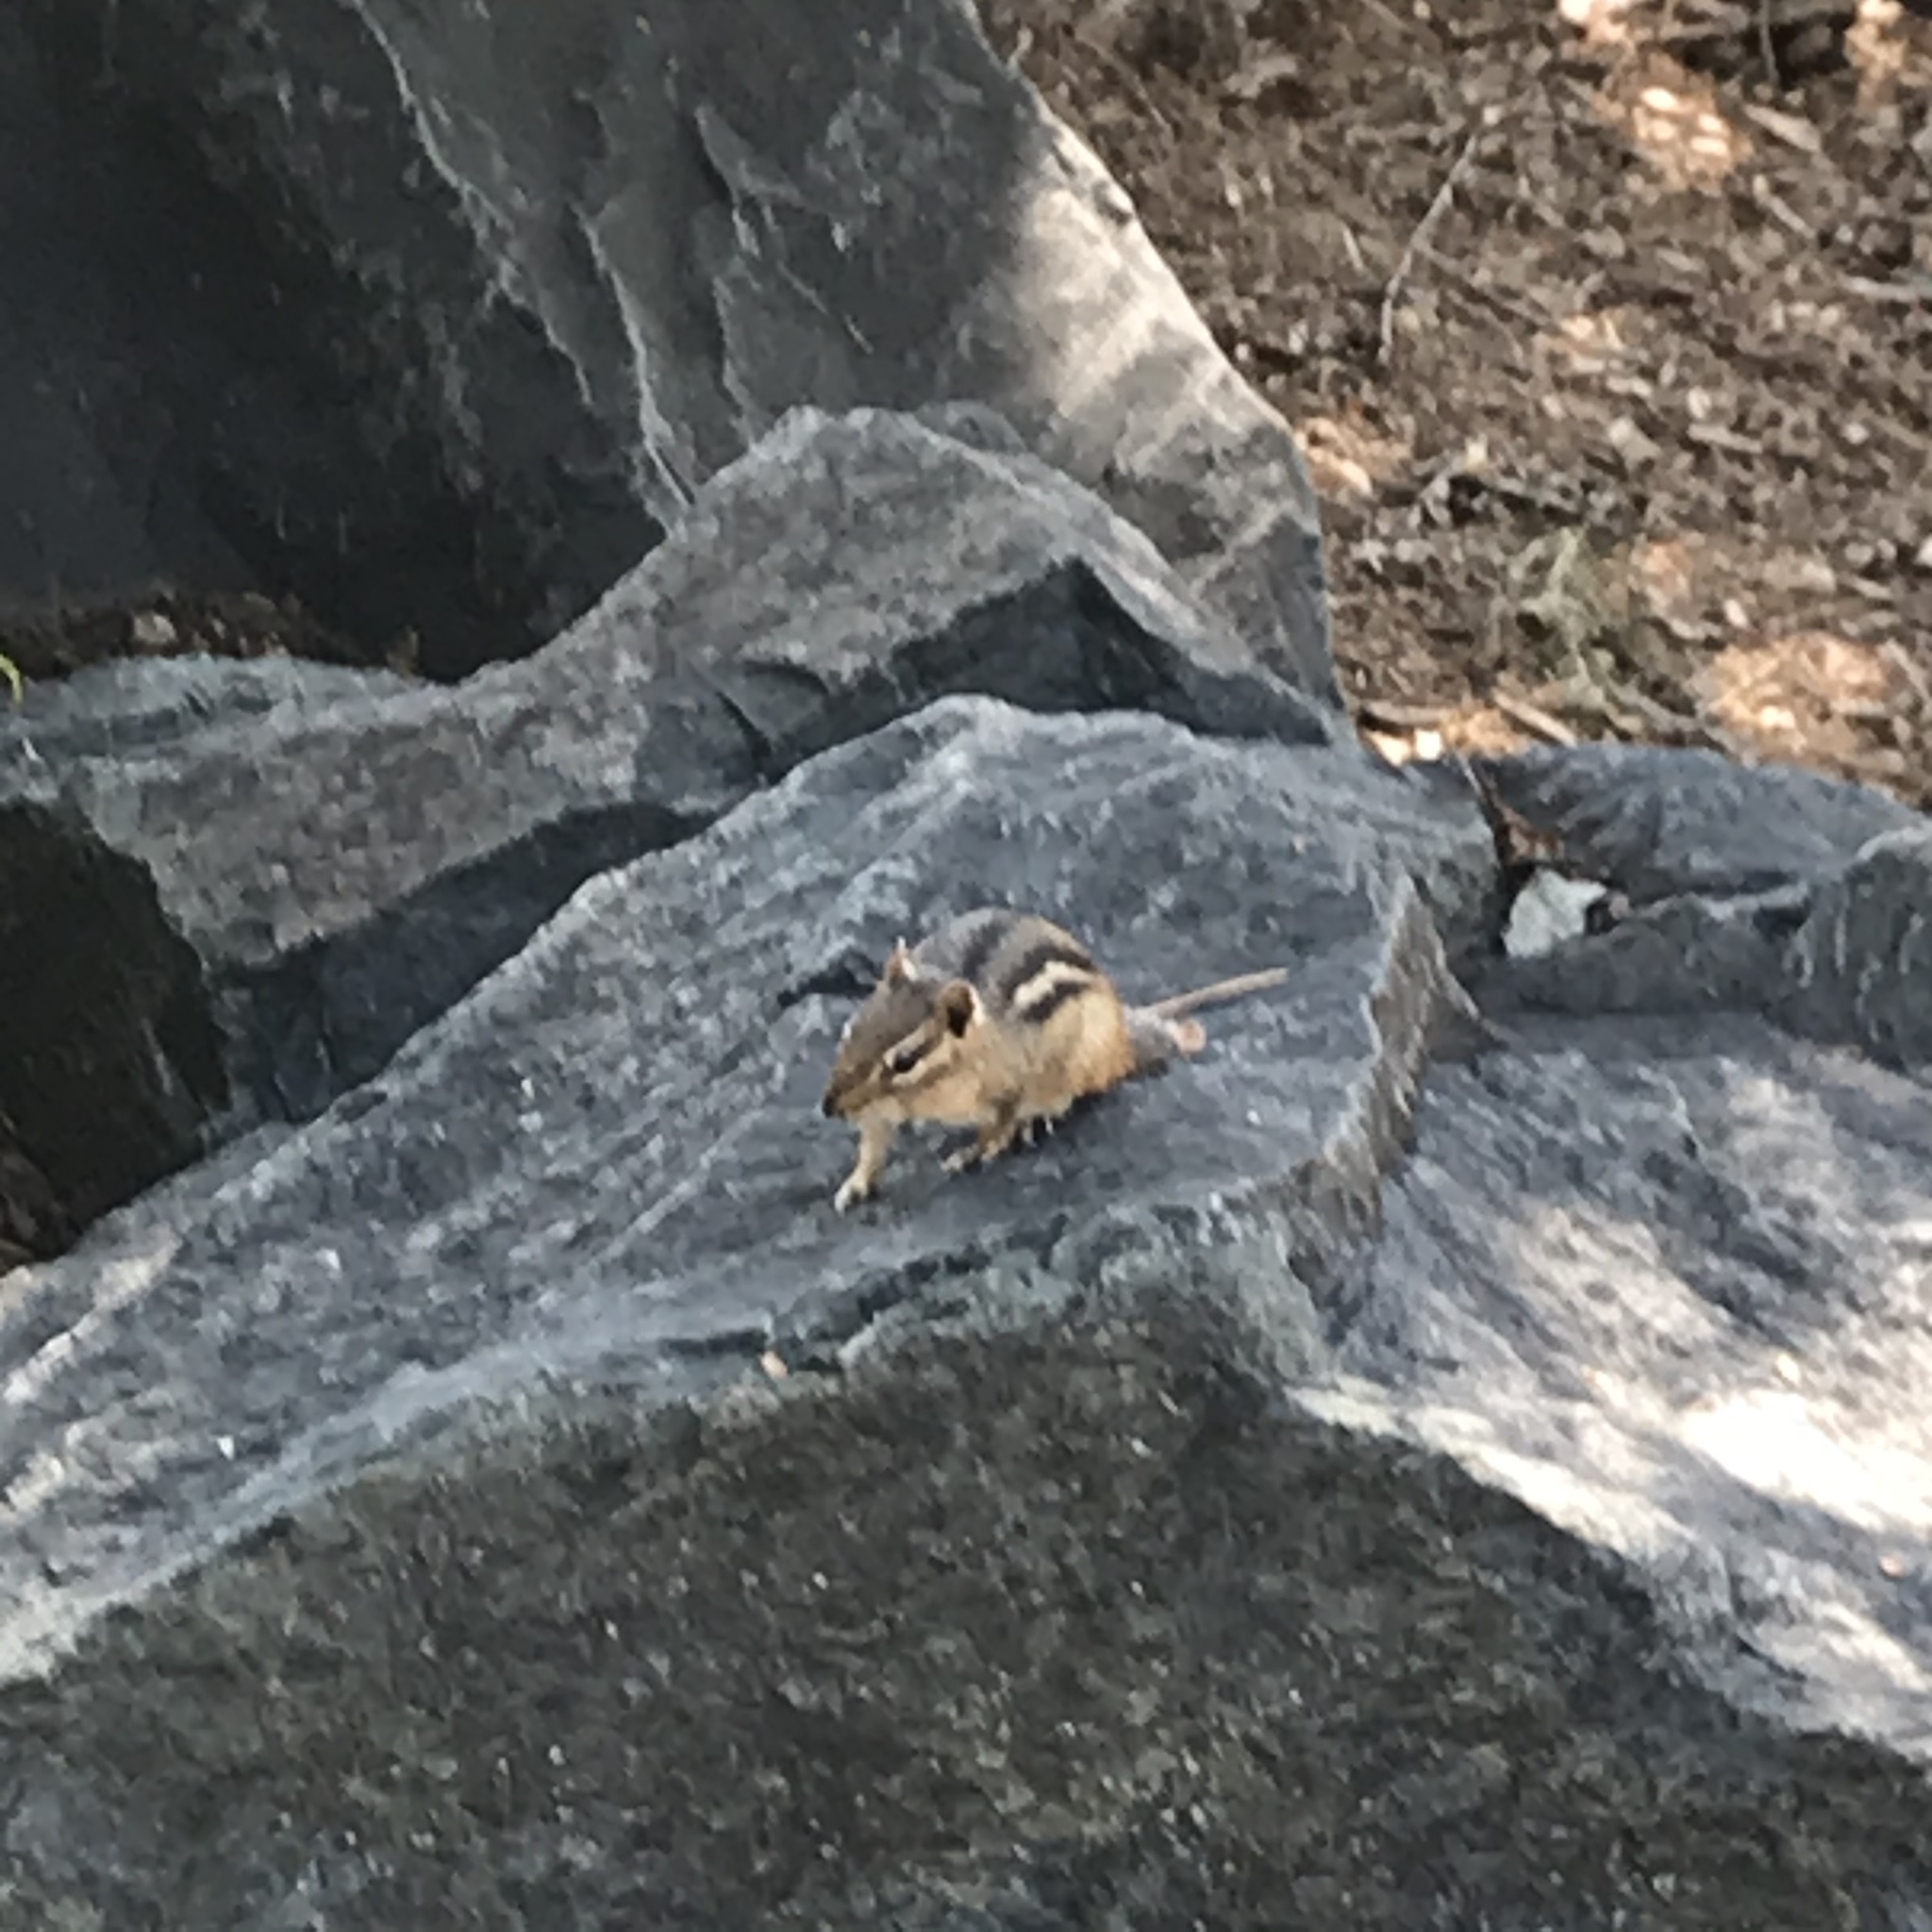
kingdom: Animalia
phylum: Chordata
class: Mammalia
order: Rodentia
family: Sciuridae
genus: Tamias
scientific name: Tamias striatus
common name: Eastern chipmunk
